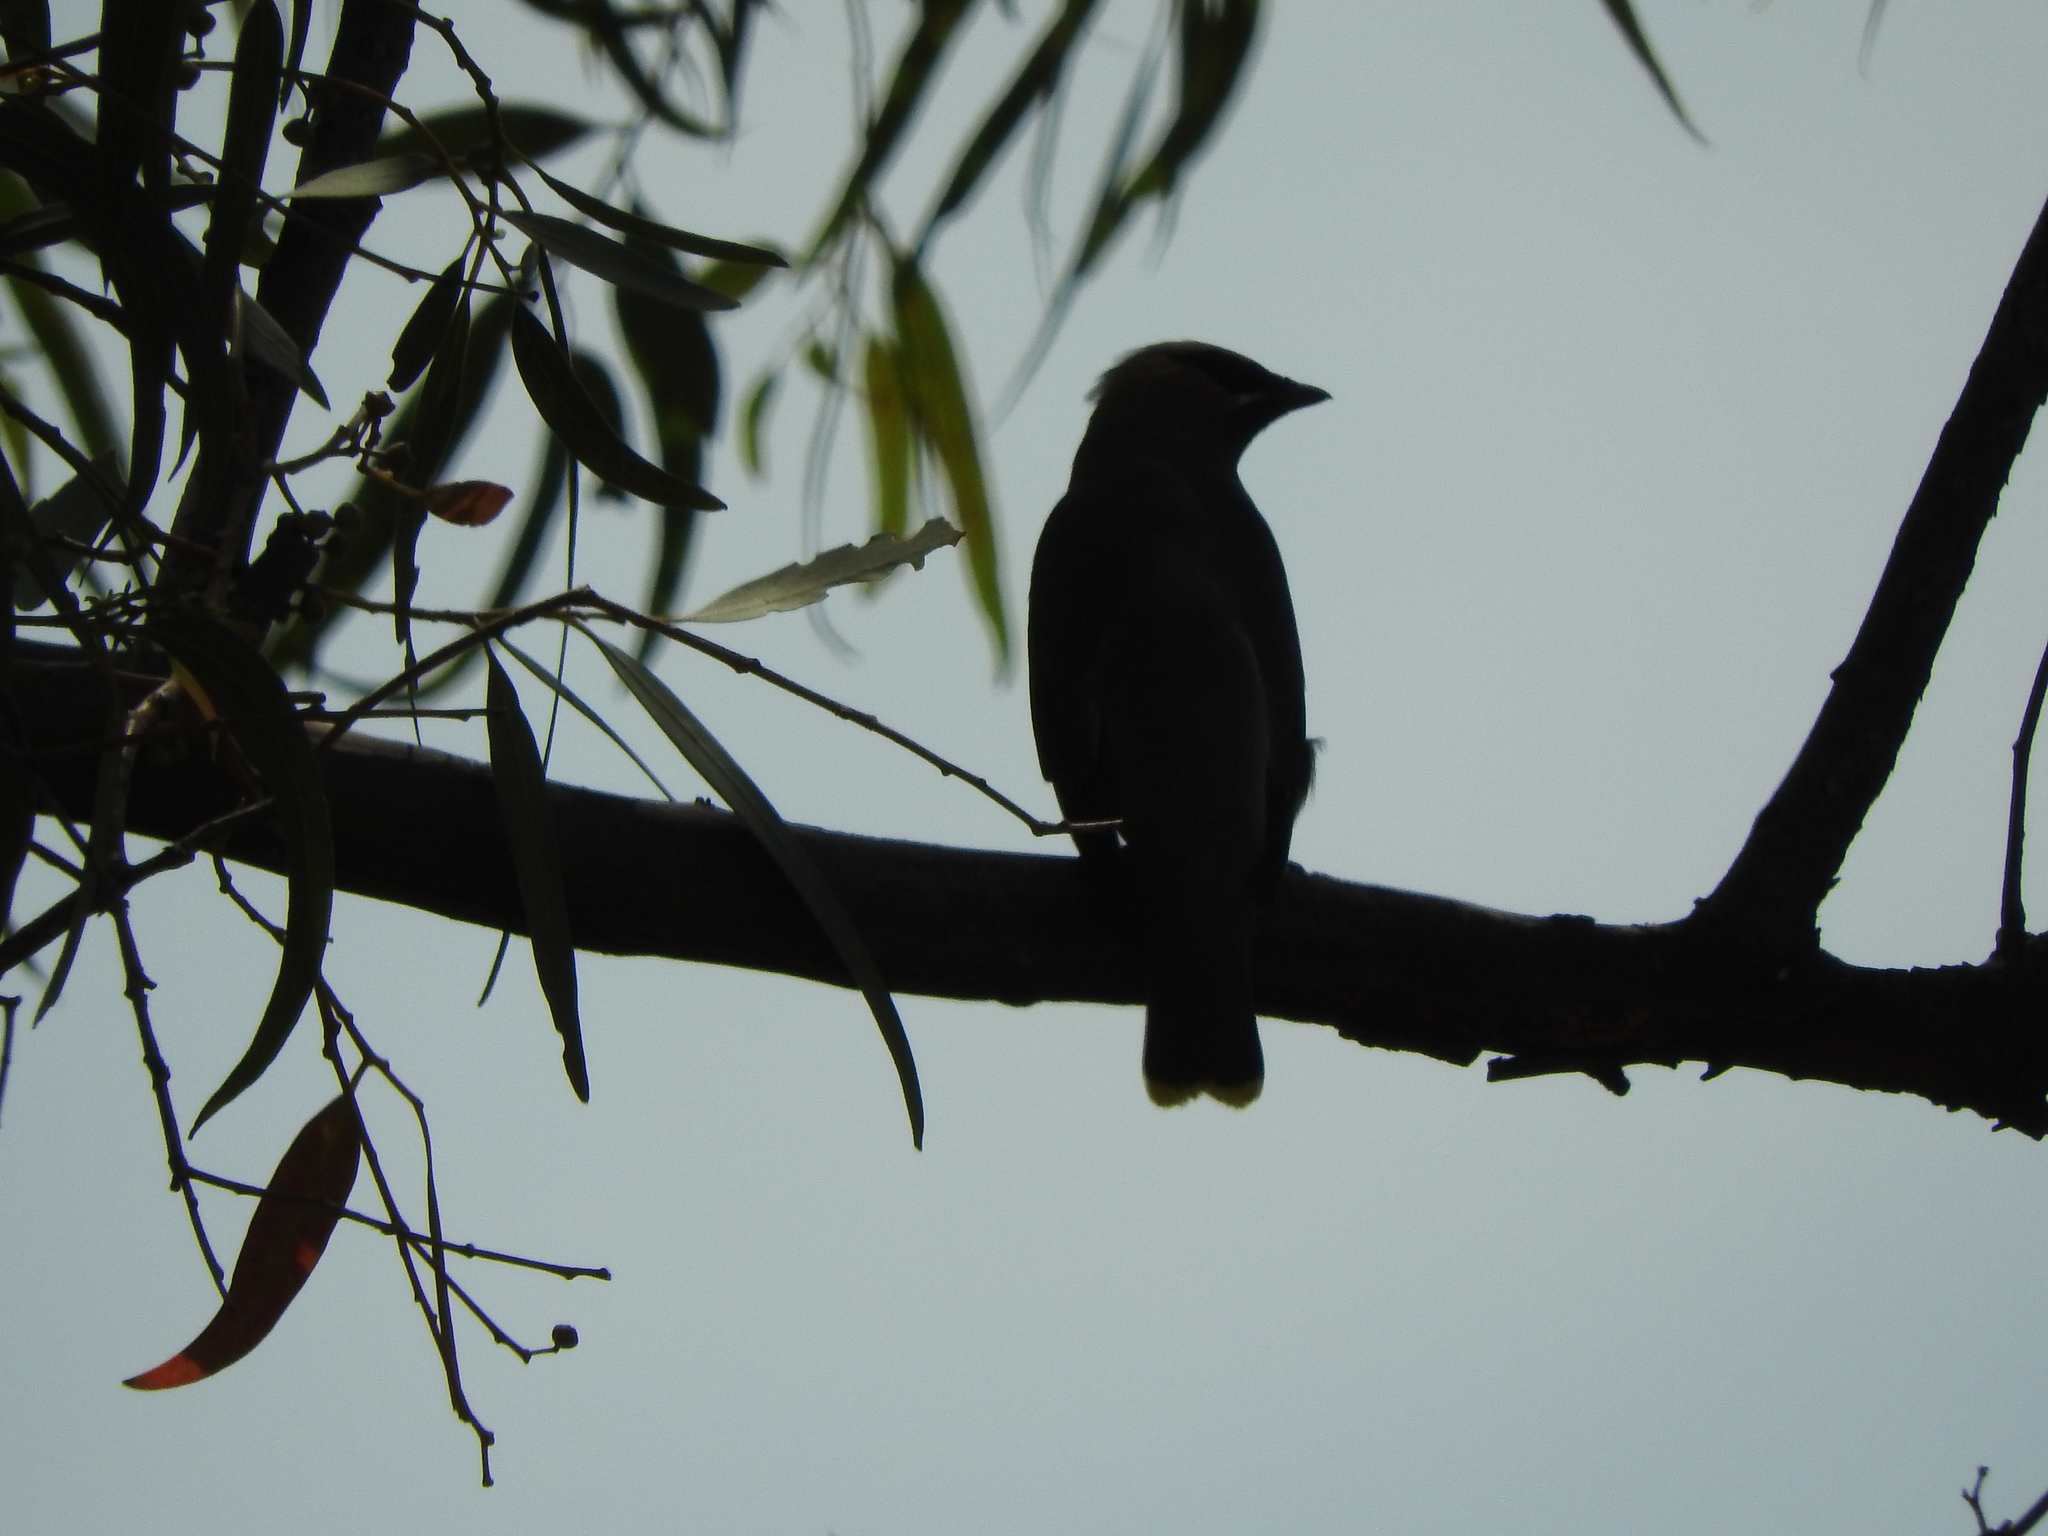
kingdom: Animalia
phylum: Chordata
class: Aves
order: Passeriformes
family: Bombycillidae
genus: Bombycilla
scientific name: Bombycilla cedrorum
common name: Cedar waxwing
